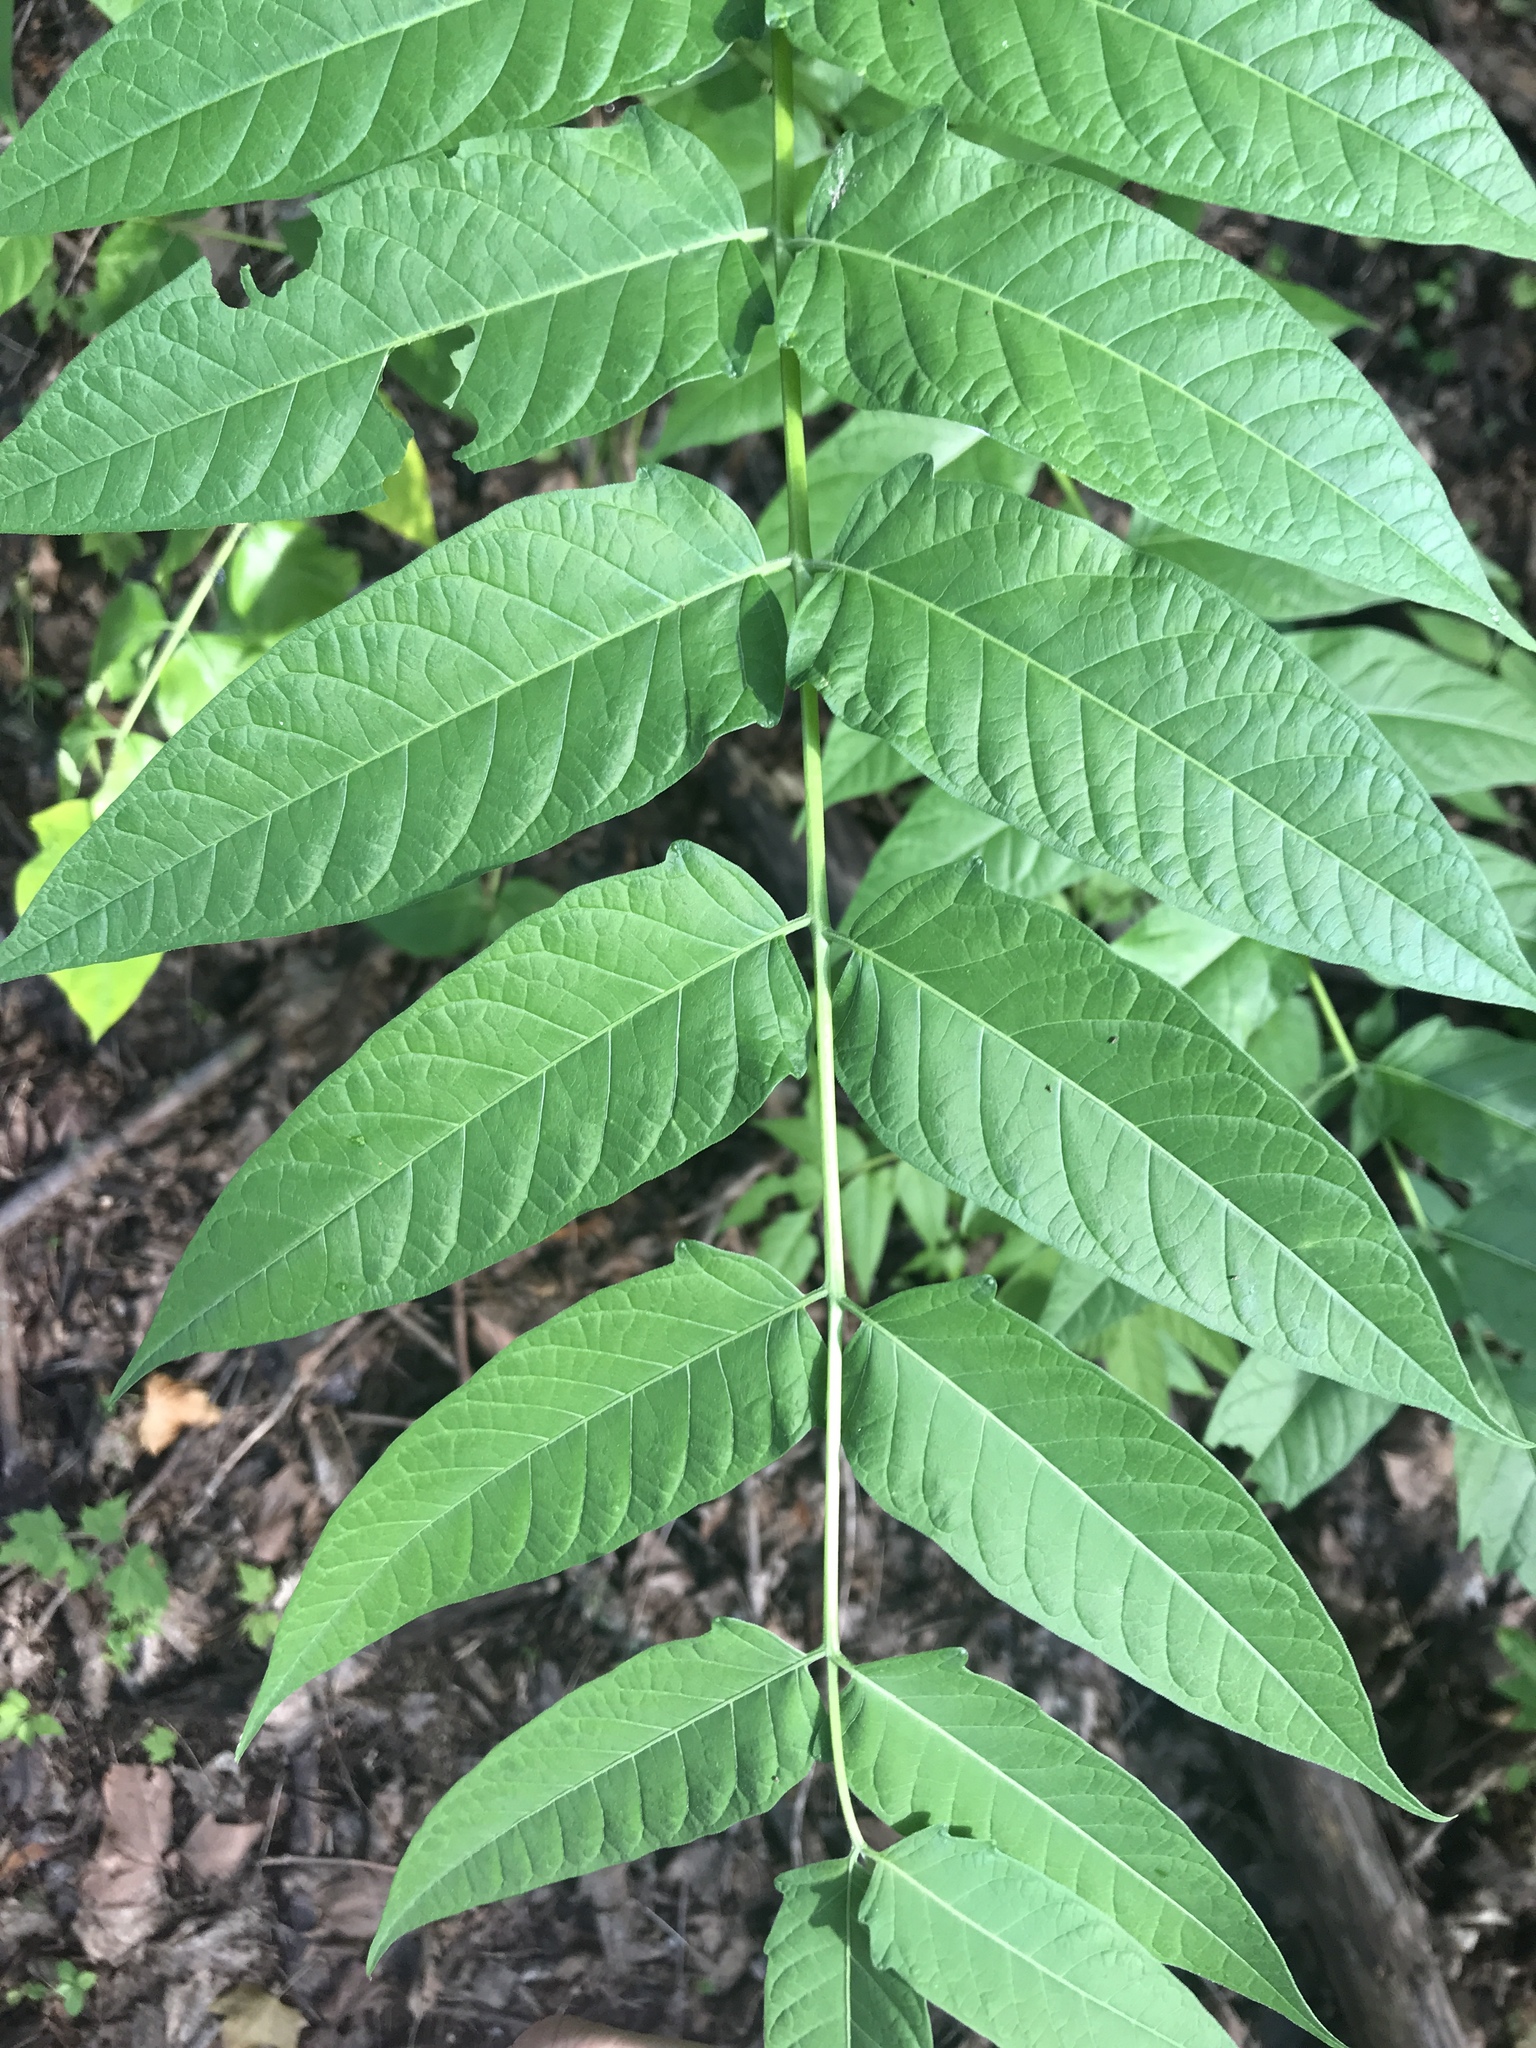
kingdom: Plantae
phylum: Tracheophyta
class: Magnoliopsida
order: Sapindales
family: Simaroubaceae
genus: Ailanthus
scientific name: Ailanthus altissima
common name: Tree-of-heaven
